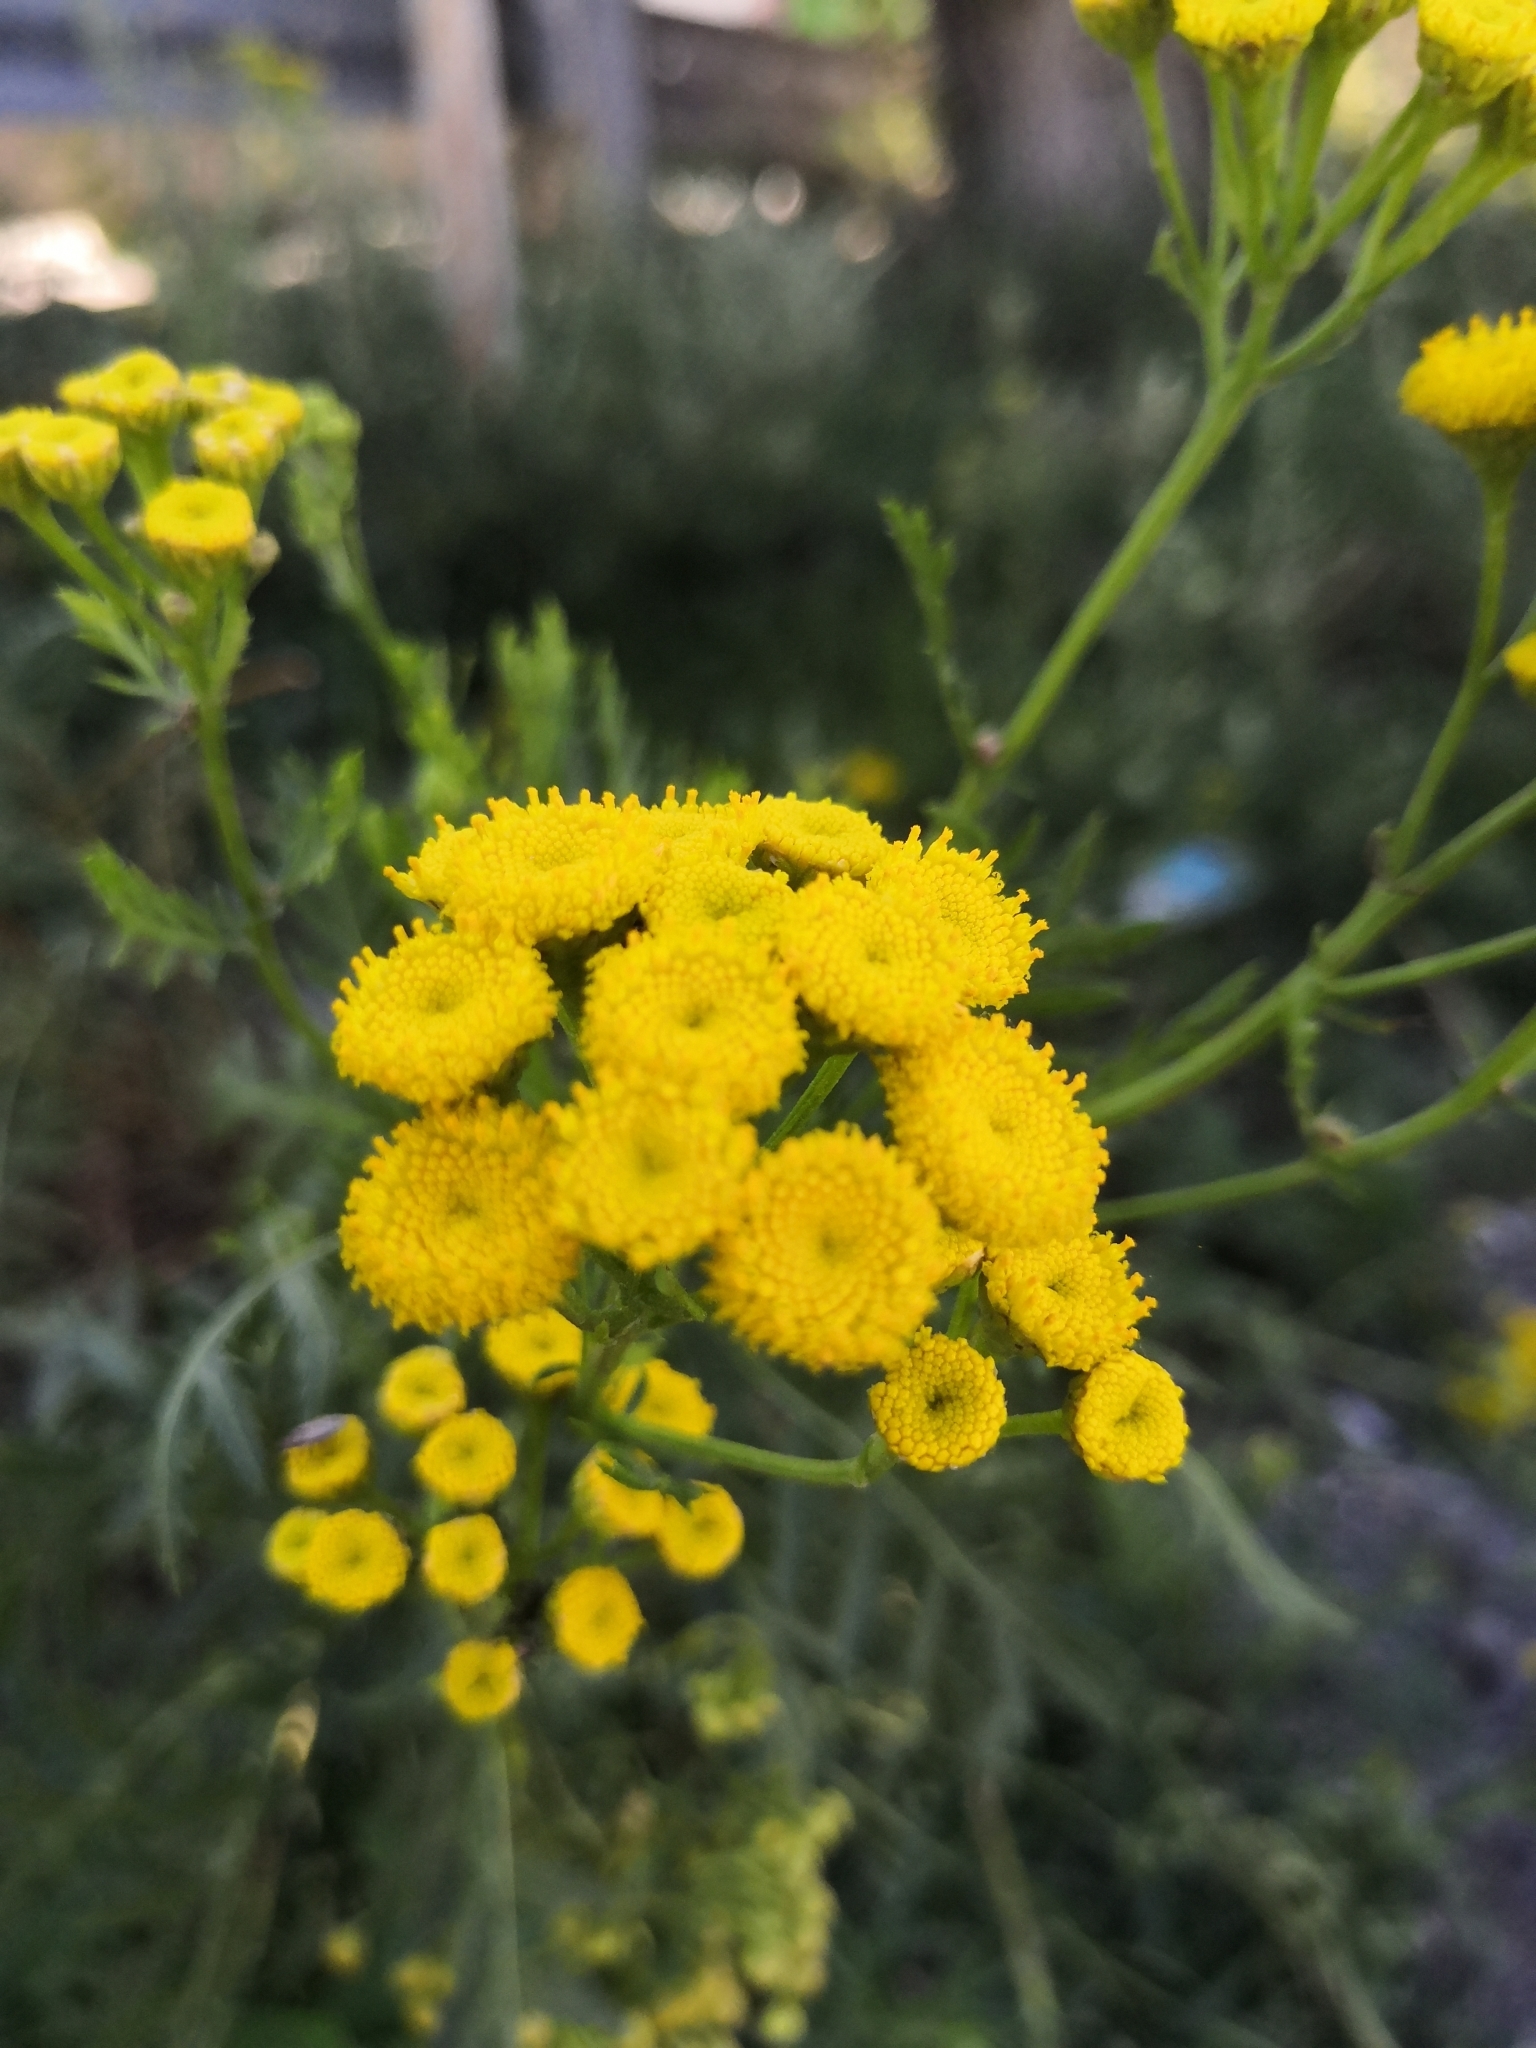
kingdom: Plantae
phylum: Tracheophyta
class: Magnoliopsida
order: Asterales
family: Asteraceae
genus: Tanacetum
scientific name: Tanacetum vulgare
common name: Common tansy
